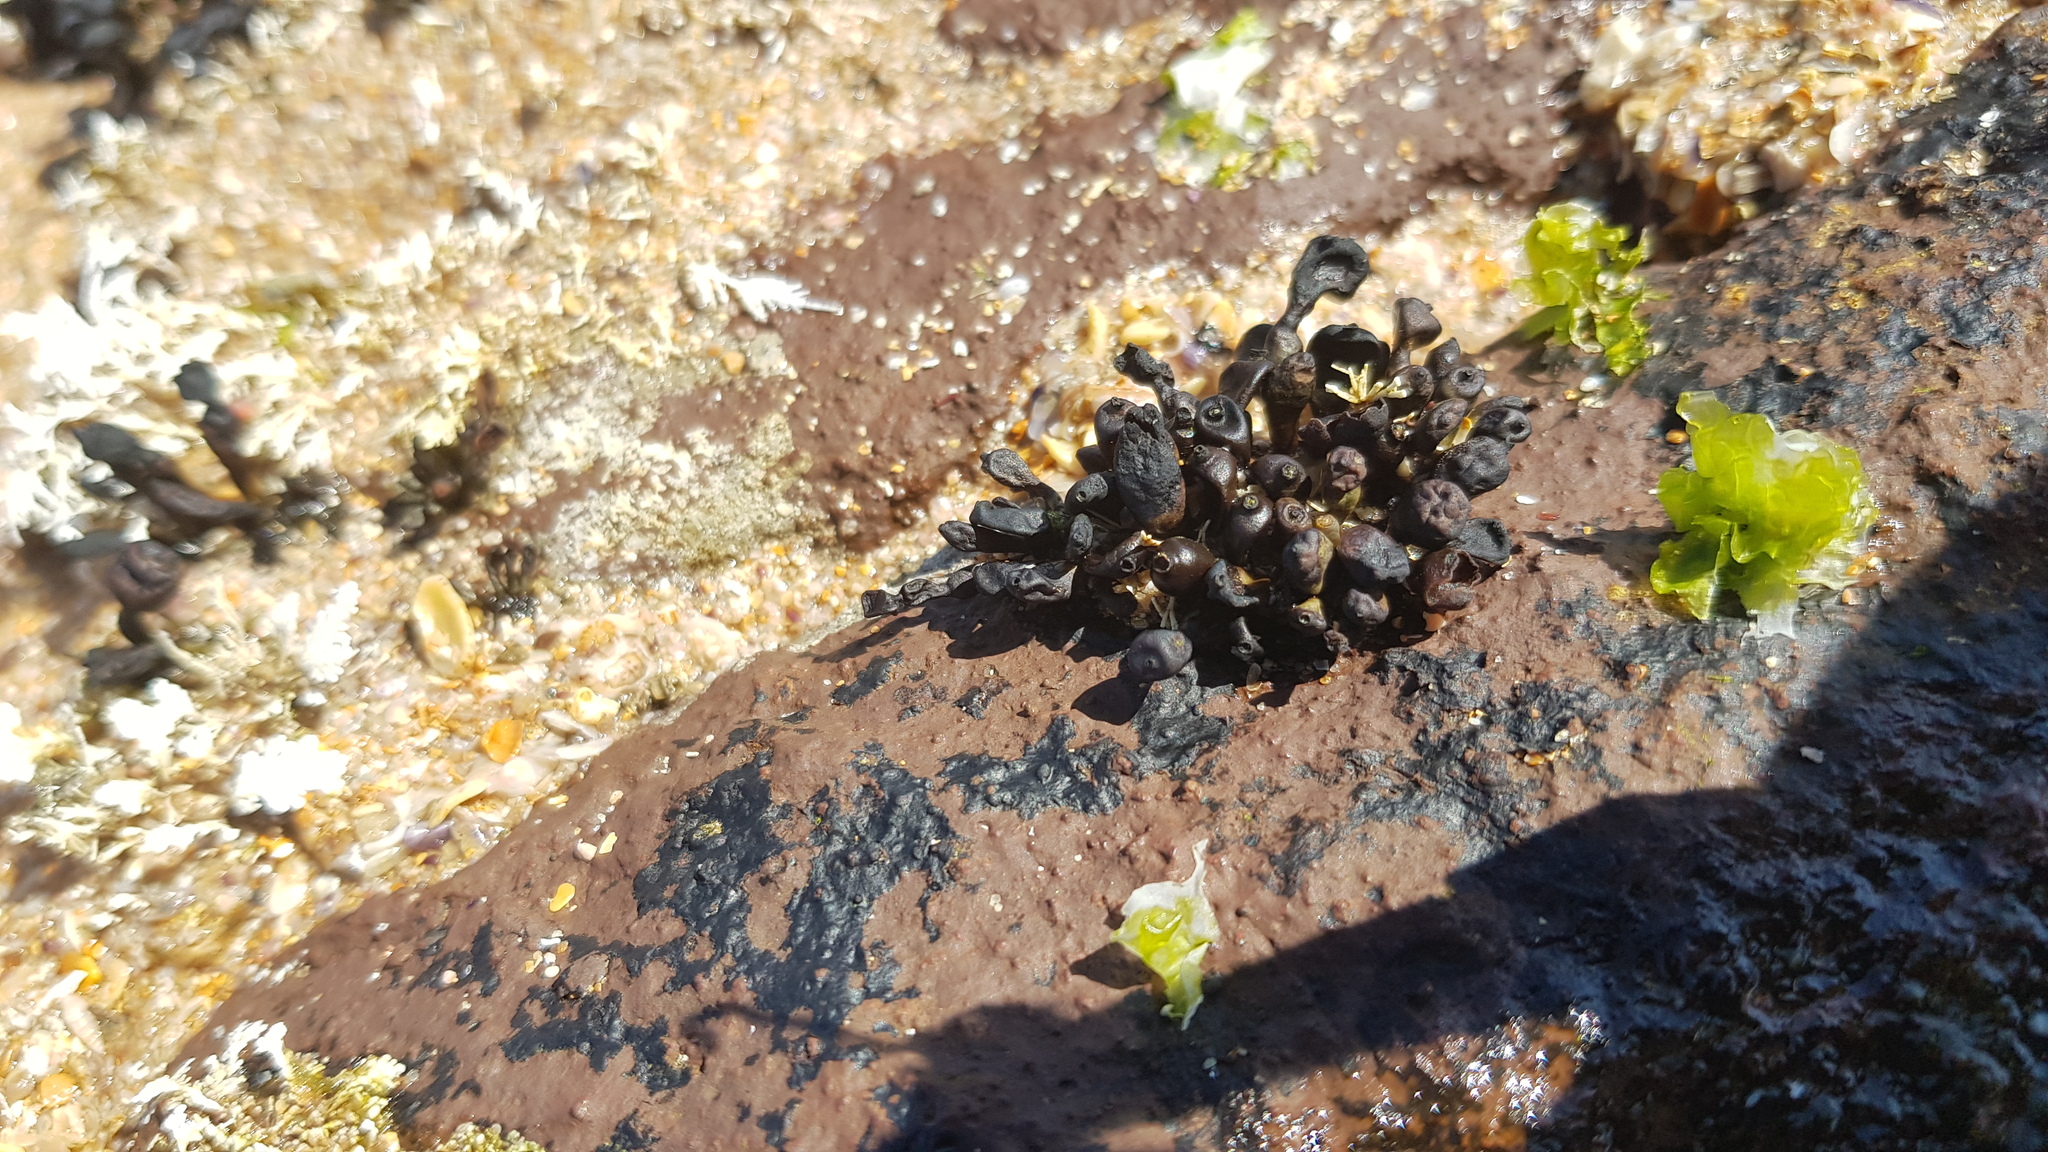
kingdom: Chromista
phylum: Ochrophyta
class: Phaeophyceae
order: Fucales
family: Hormosiraceae
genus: Hormosira
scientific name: Hormosira banksii
